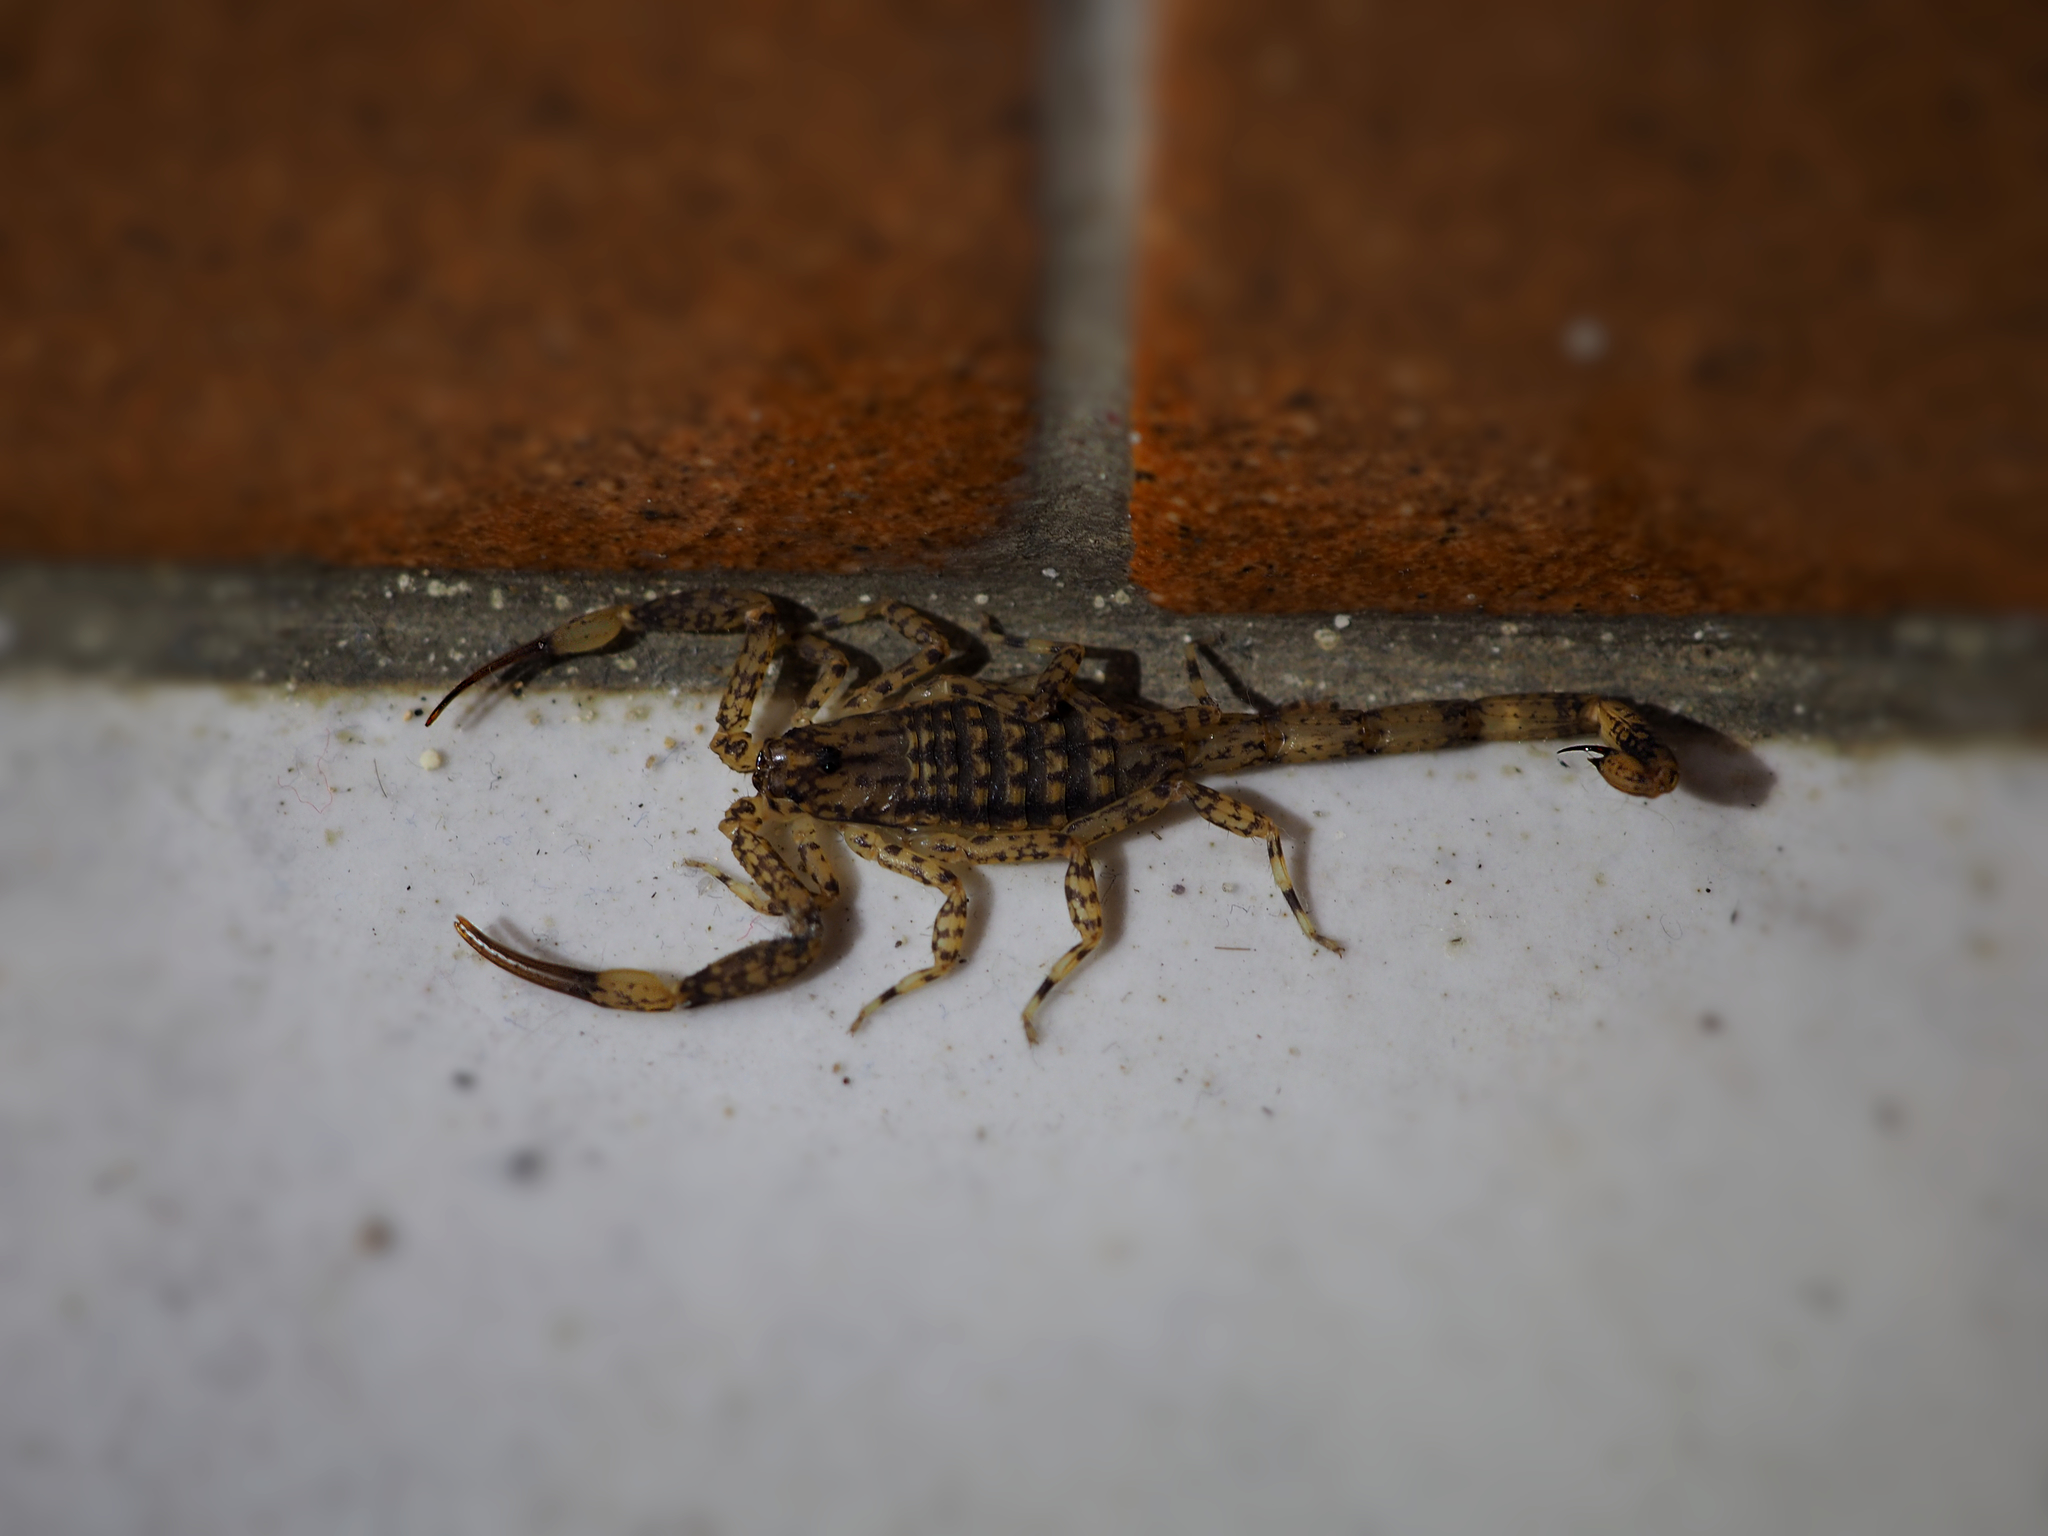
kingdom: Animalia
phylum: Arthropoda
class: Arachnida
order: Scorpiones
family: Buthidae
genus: Isometrus
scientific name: Isometrus maculatus
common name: Scorpions
